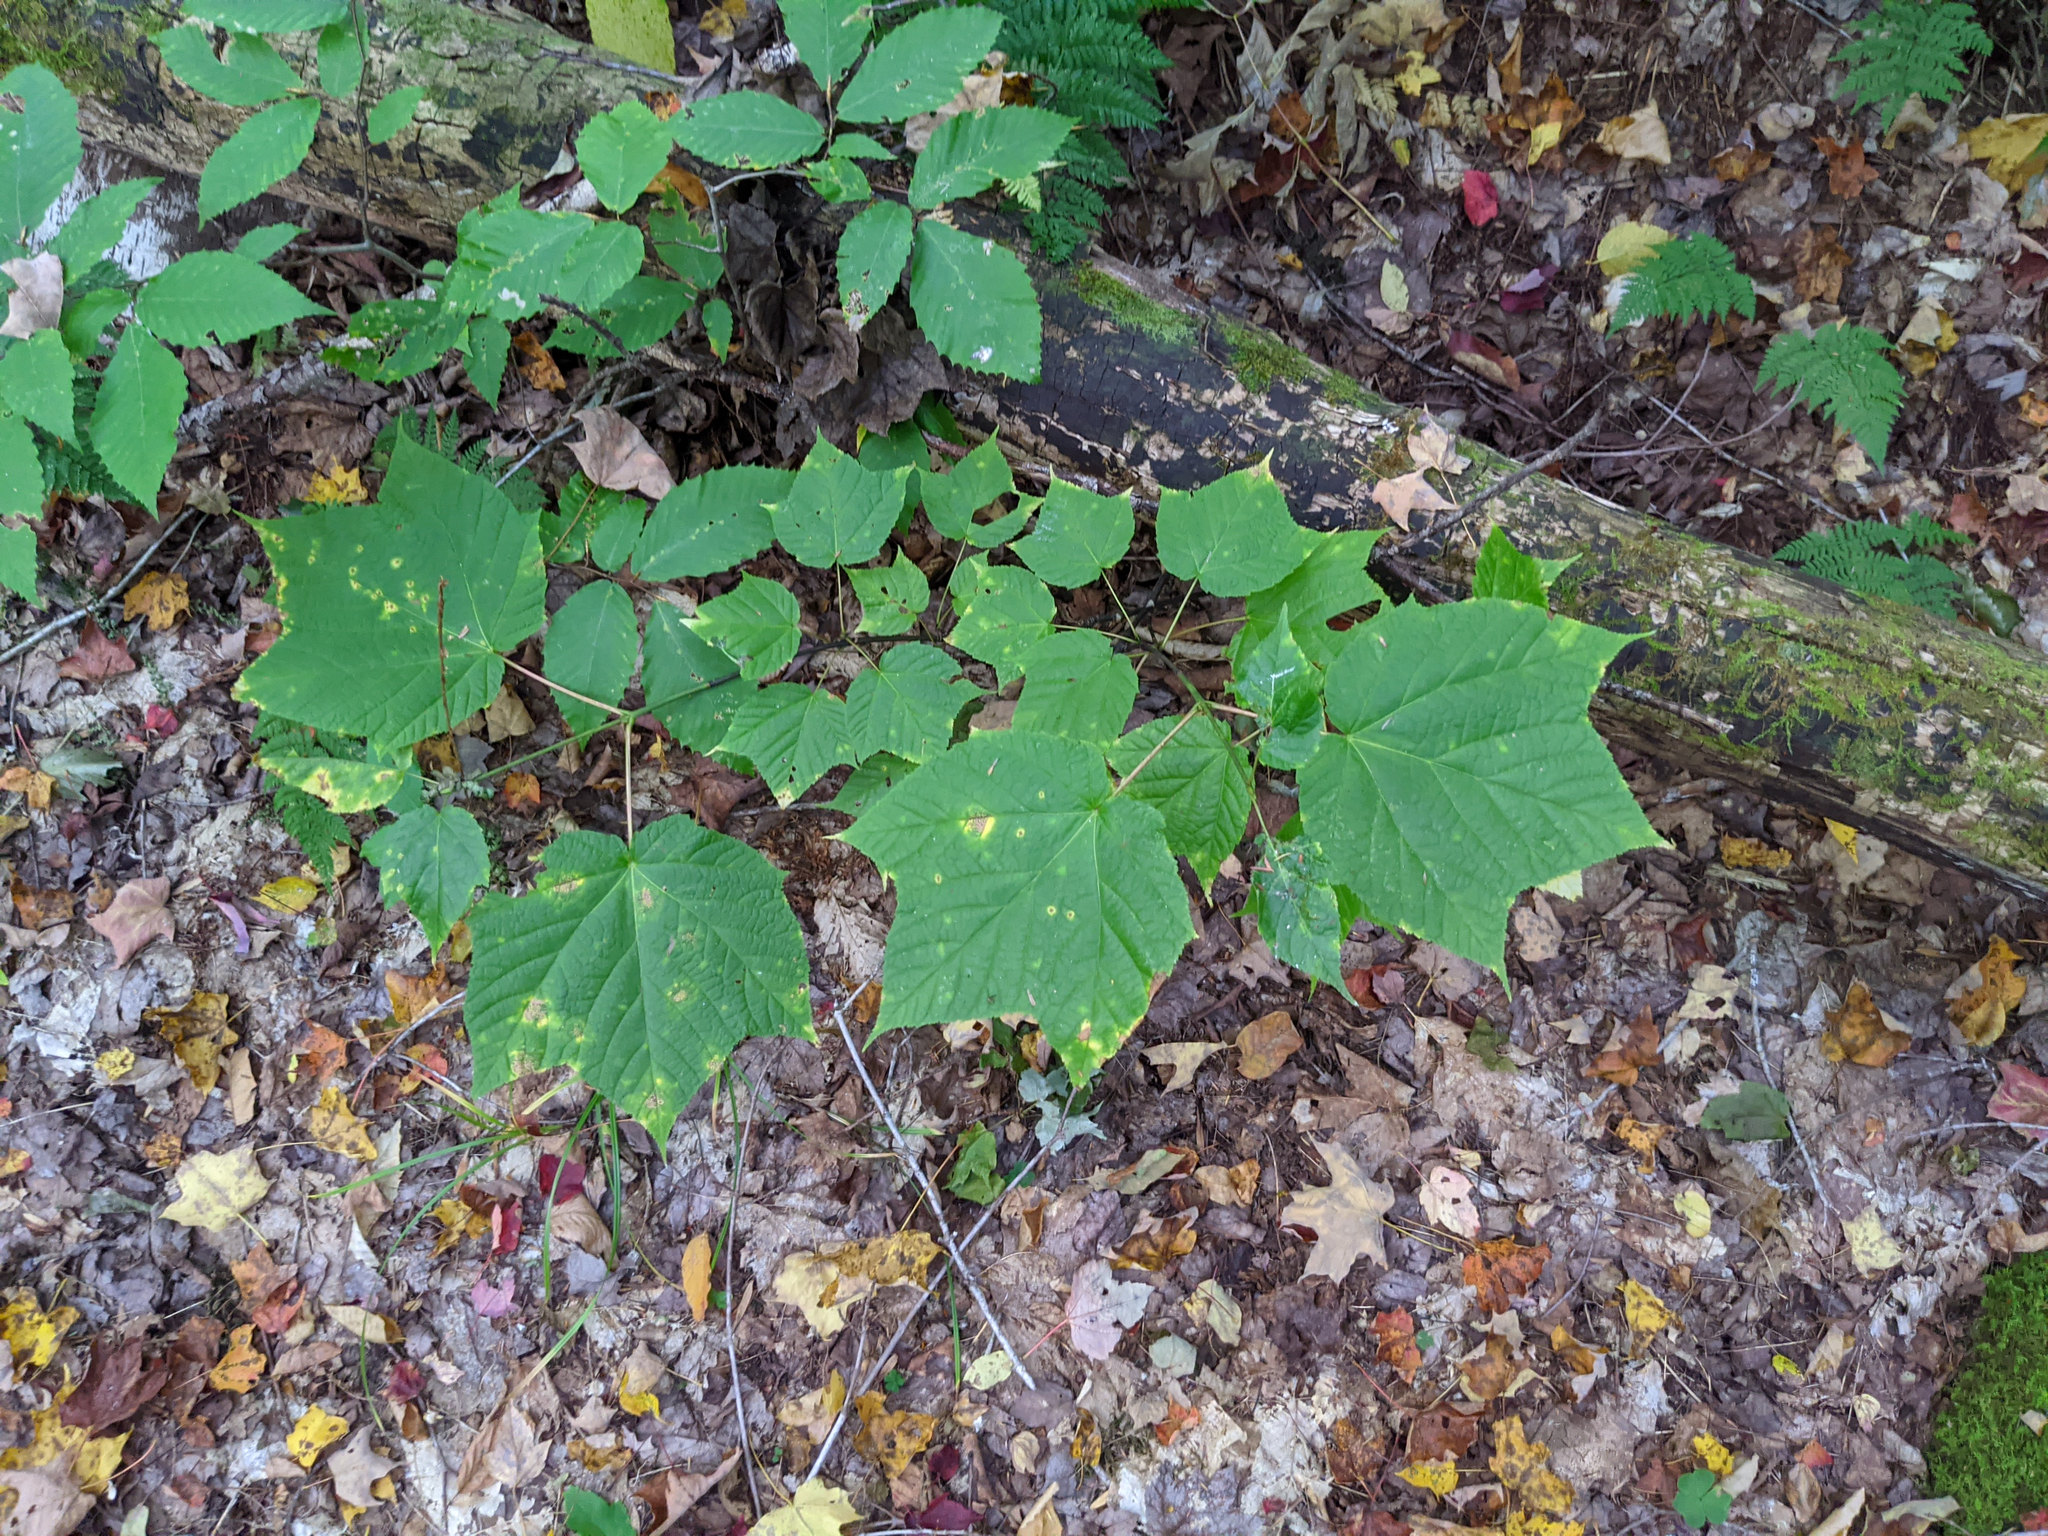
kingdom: Plantae
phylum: Tracheophyta
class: Magnoliopsida
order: Sapindales
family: Sapindaceae
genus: Acer
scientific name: Acer pensylvanicum
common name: Moosewood
